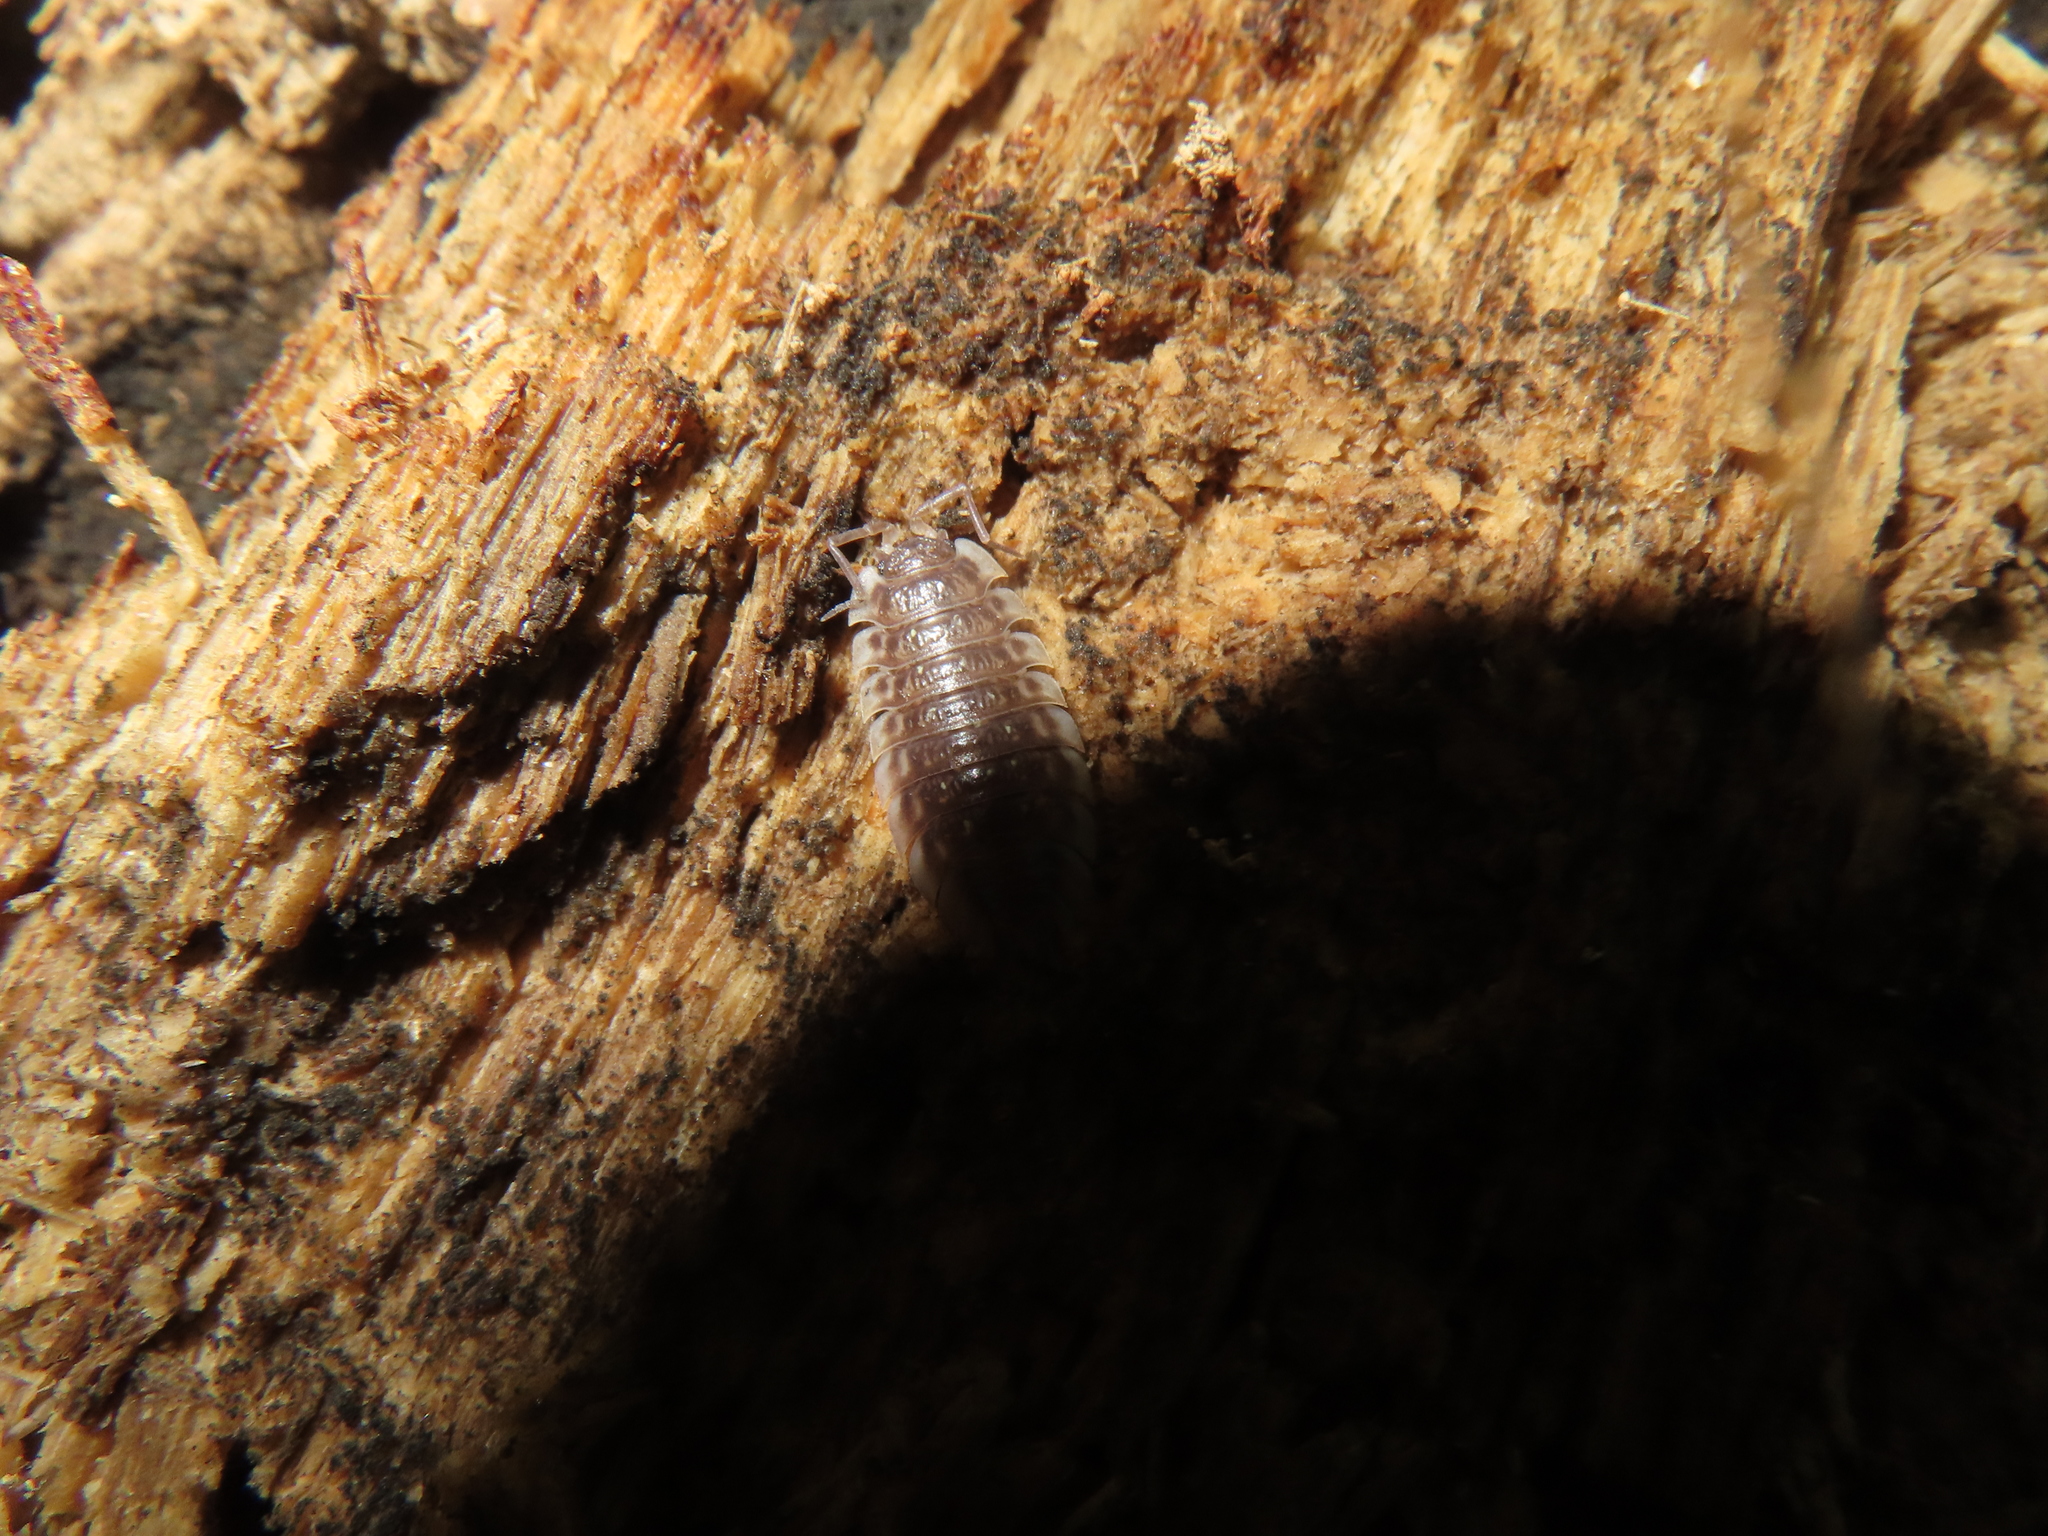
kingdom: Animalia
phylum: Arthropoda
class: Malacostraca
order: Isopoda
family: Oniscidae
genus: Oniscus
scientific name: Oniscus asellus
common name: Common shiny woodlouse
